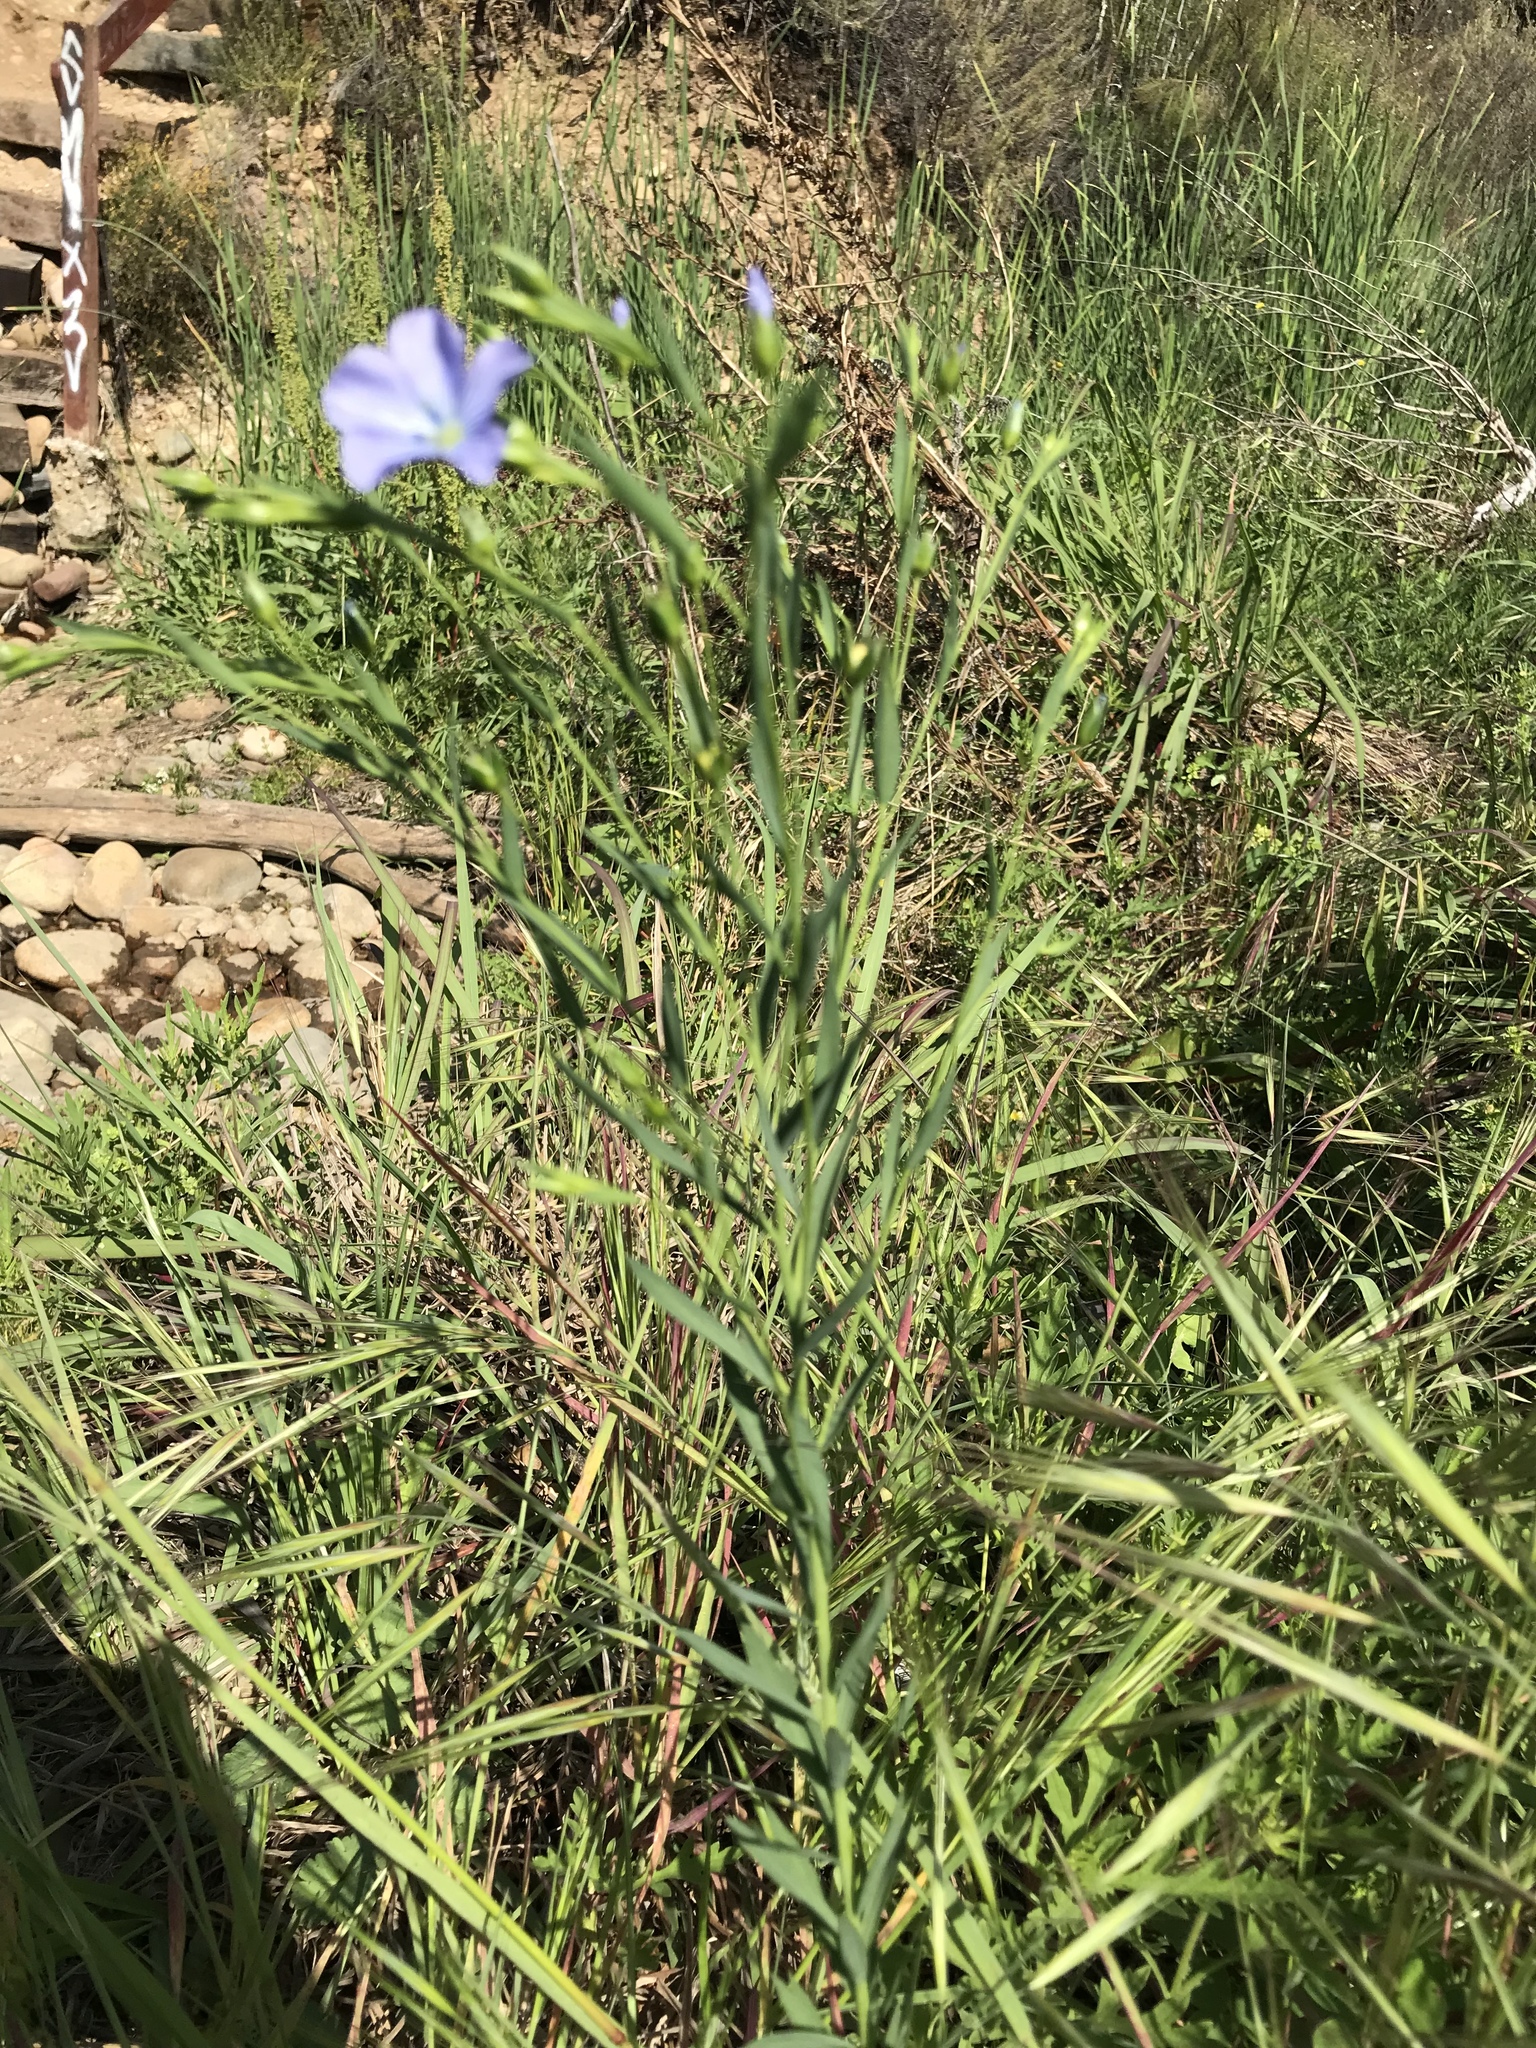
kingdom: Plantae
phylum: Tracheophyta
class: Magnoliopsida
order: Malpighiales
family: Linaceae
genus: Linum
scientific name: Linum usitatissimum
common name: Flax
